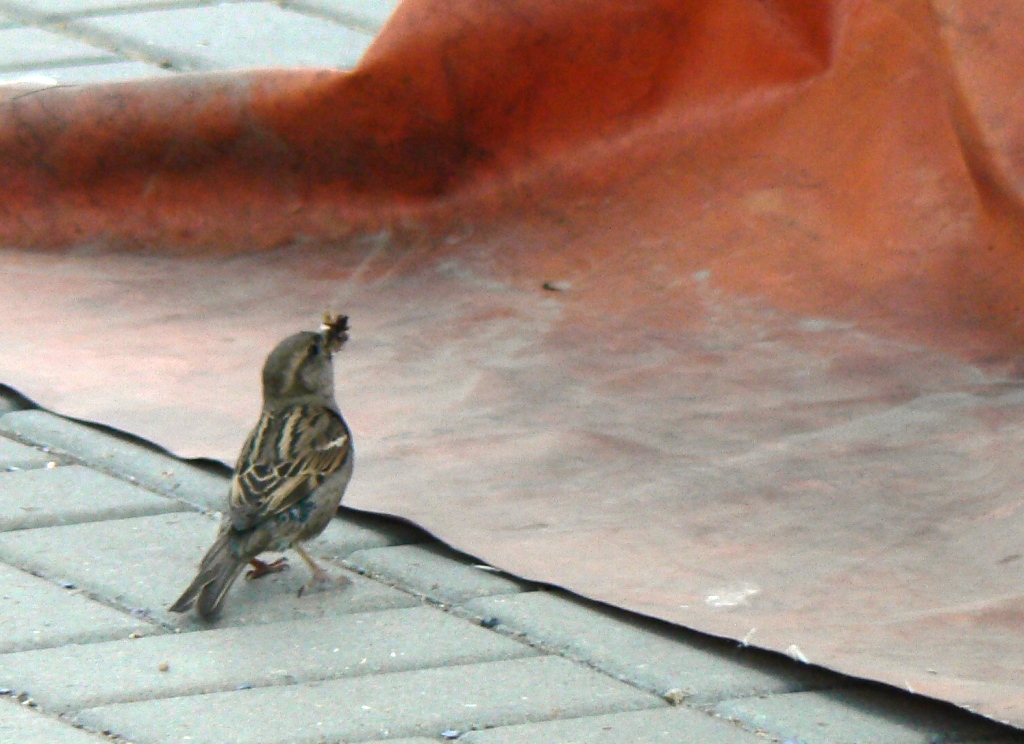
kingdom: Animalia
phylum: Chordata
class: Aves
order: Passeriformes
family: Passeridae
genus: Passer
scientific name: Passer domesticus
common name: House sparrow
